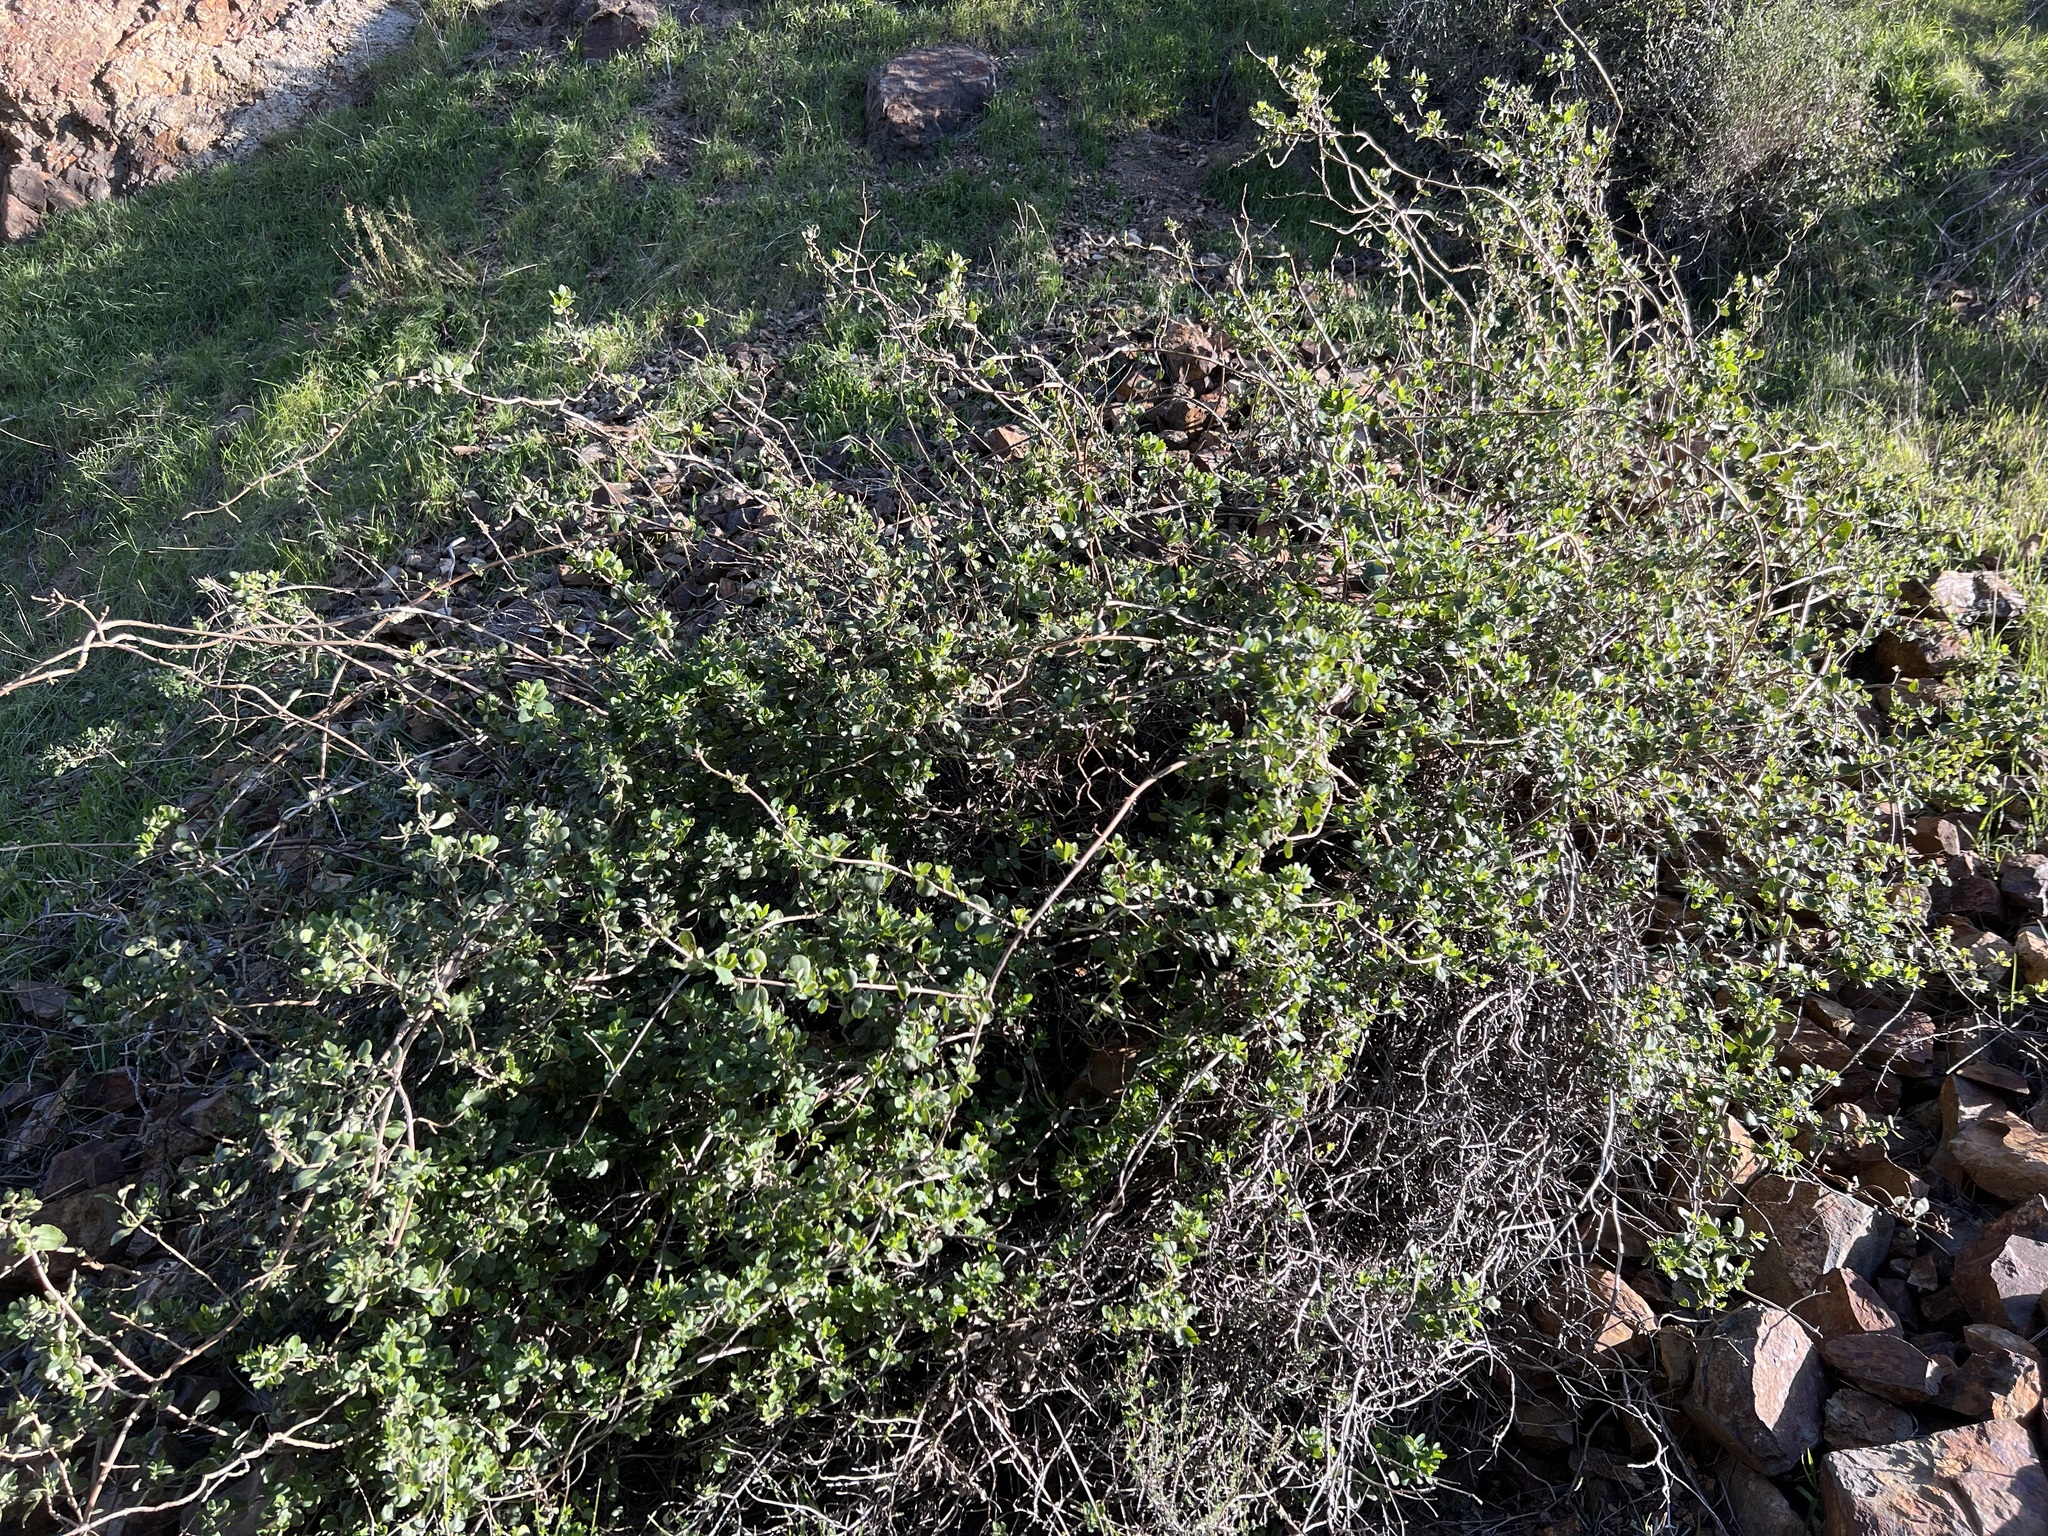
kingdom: Plantae
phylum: Tracheophyta
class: Magnoliopsida
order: Dipsacales
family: Caprifoliaceae
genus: Lonicera
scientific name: Lonicera subspicata
